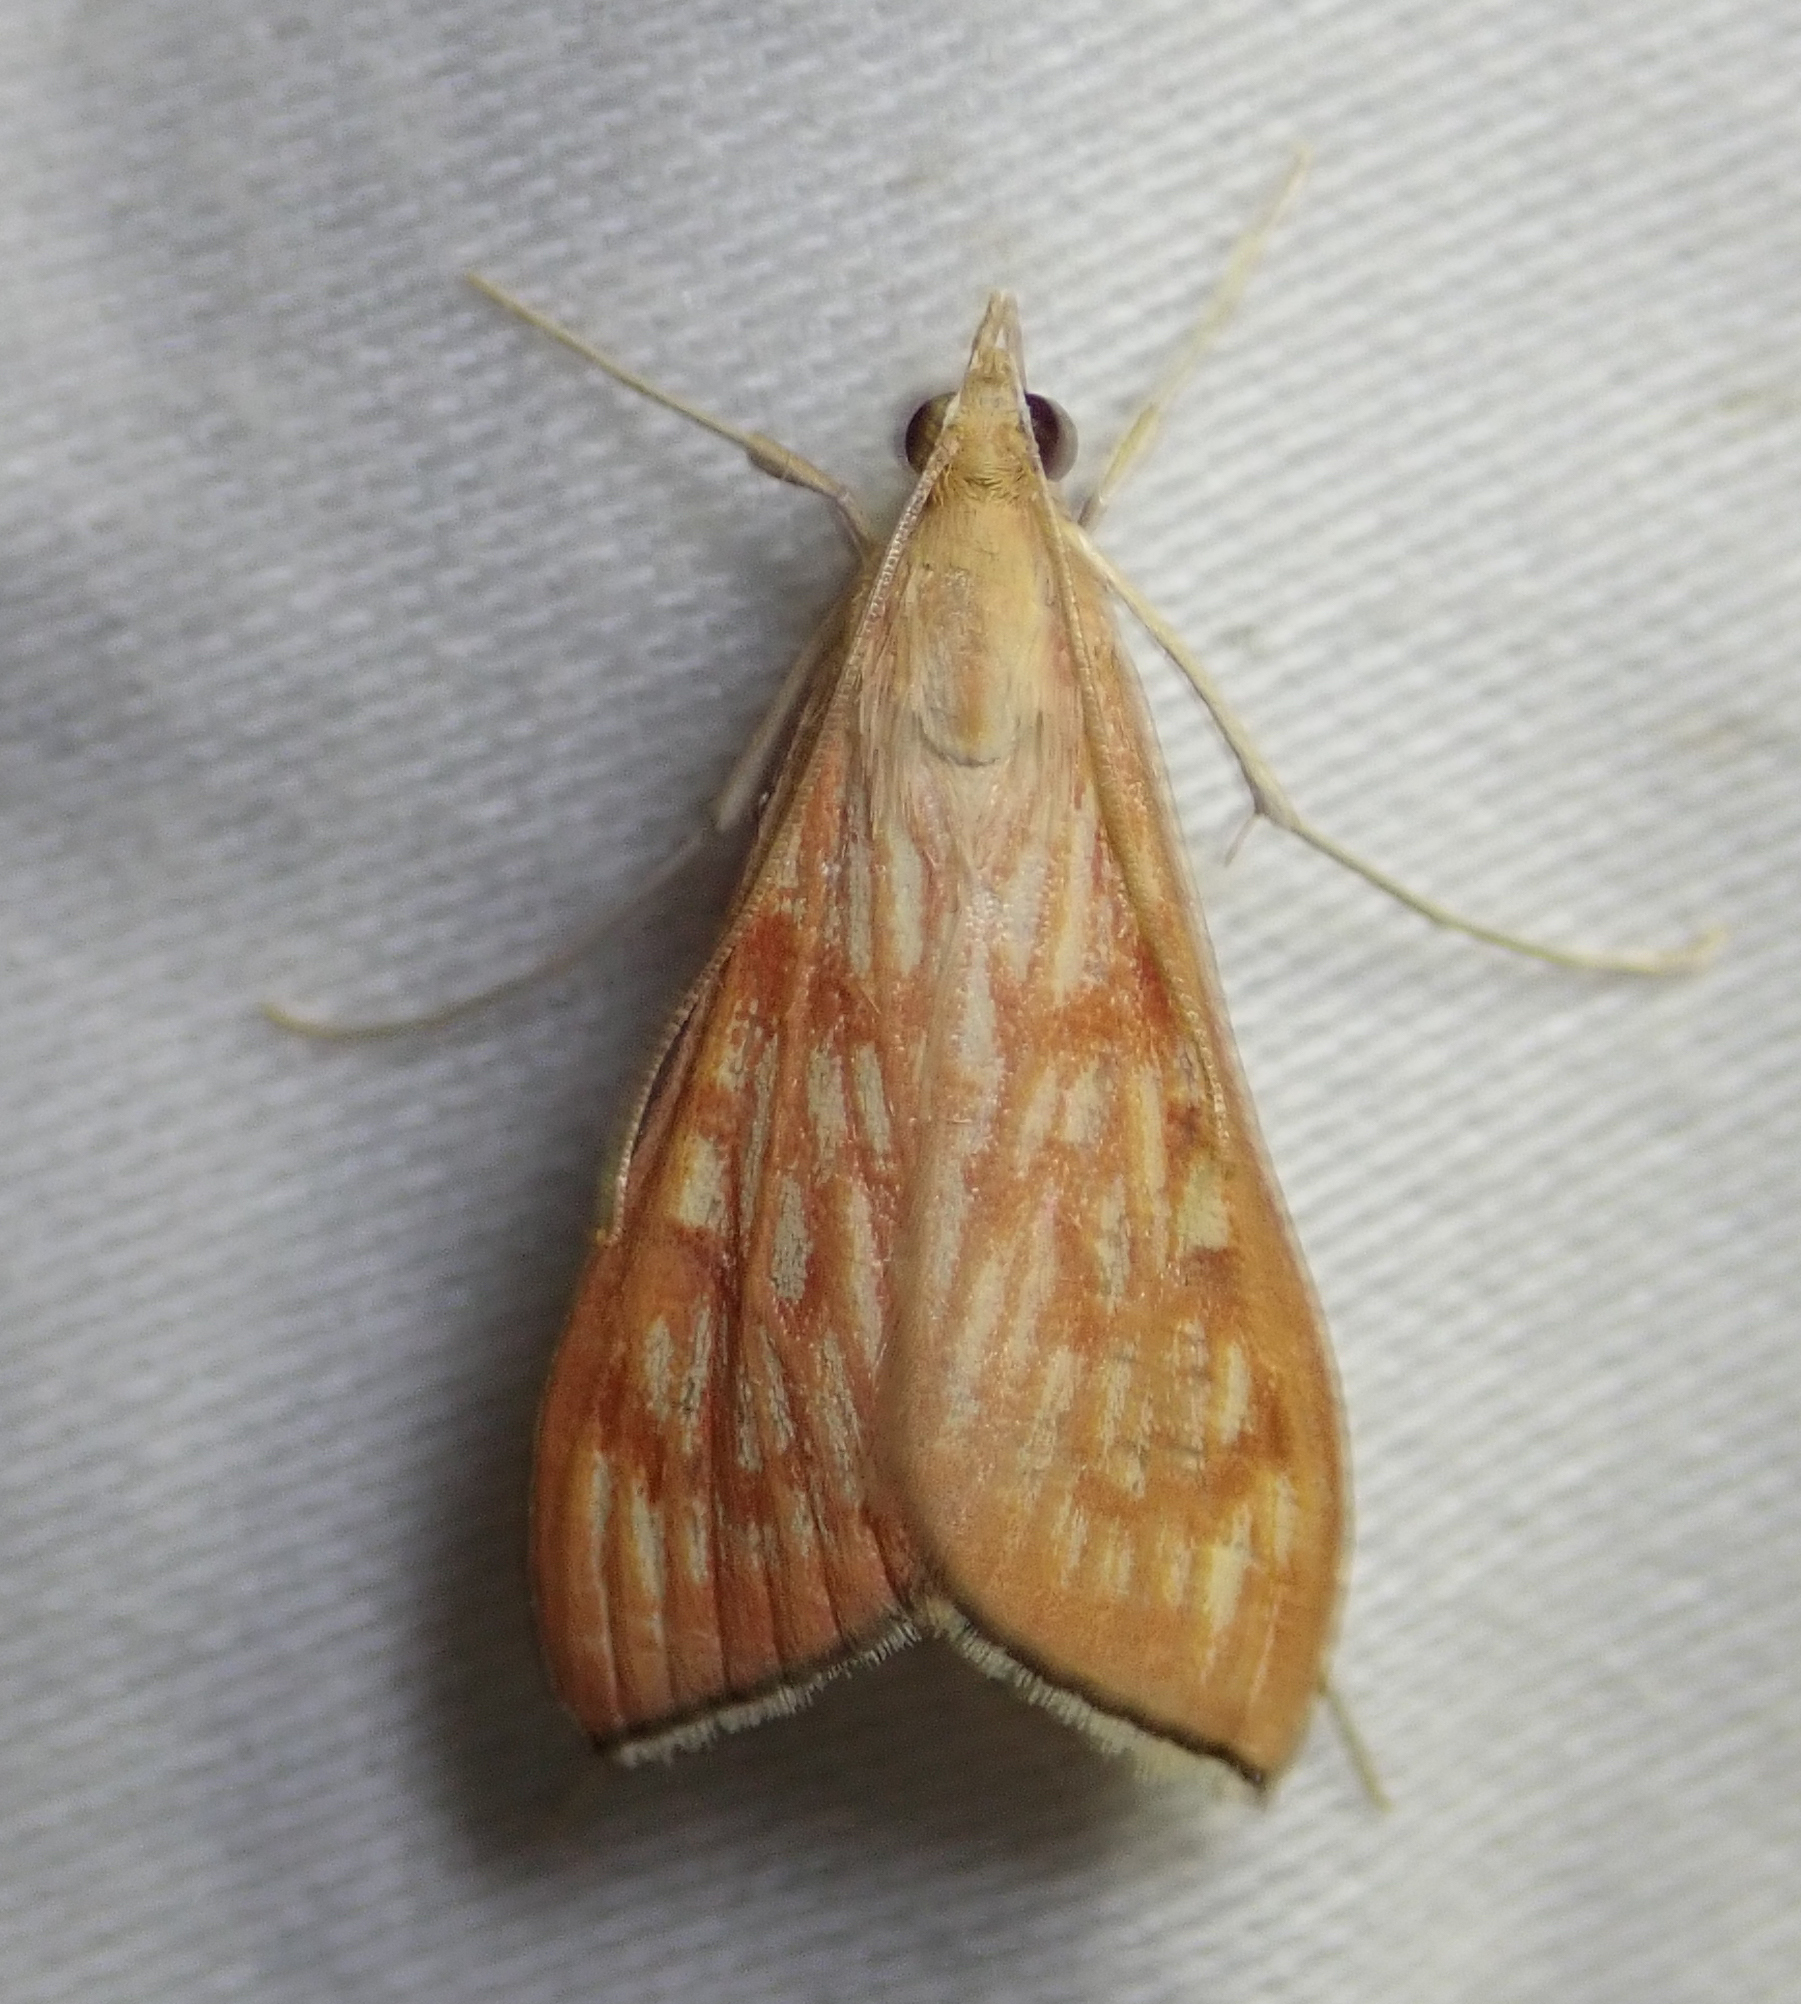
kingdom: Animalia
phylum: Arthropoda
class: Insecta
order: Lepidoptera
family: Crambidae
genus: Antigastra
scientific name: Antigastra catalaunalis
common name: Spanish dot
